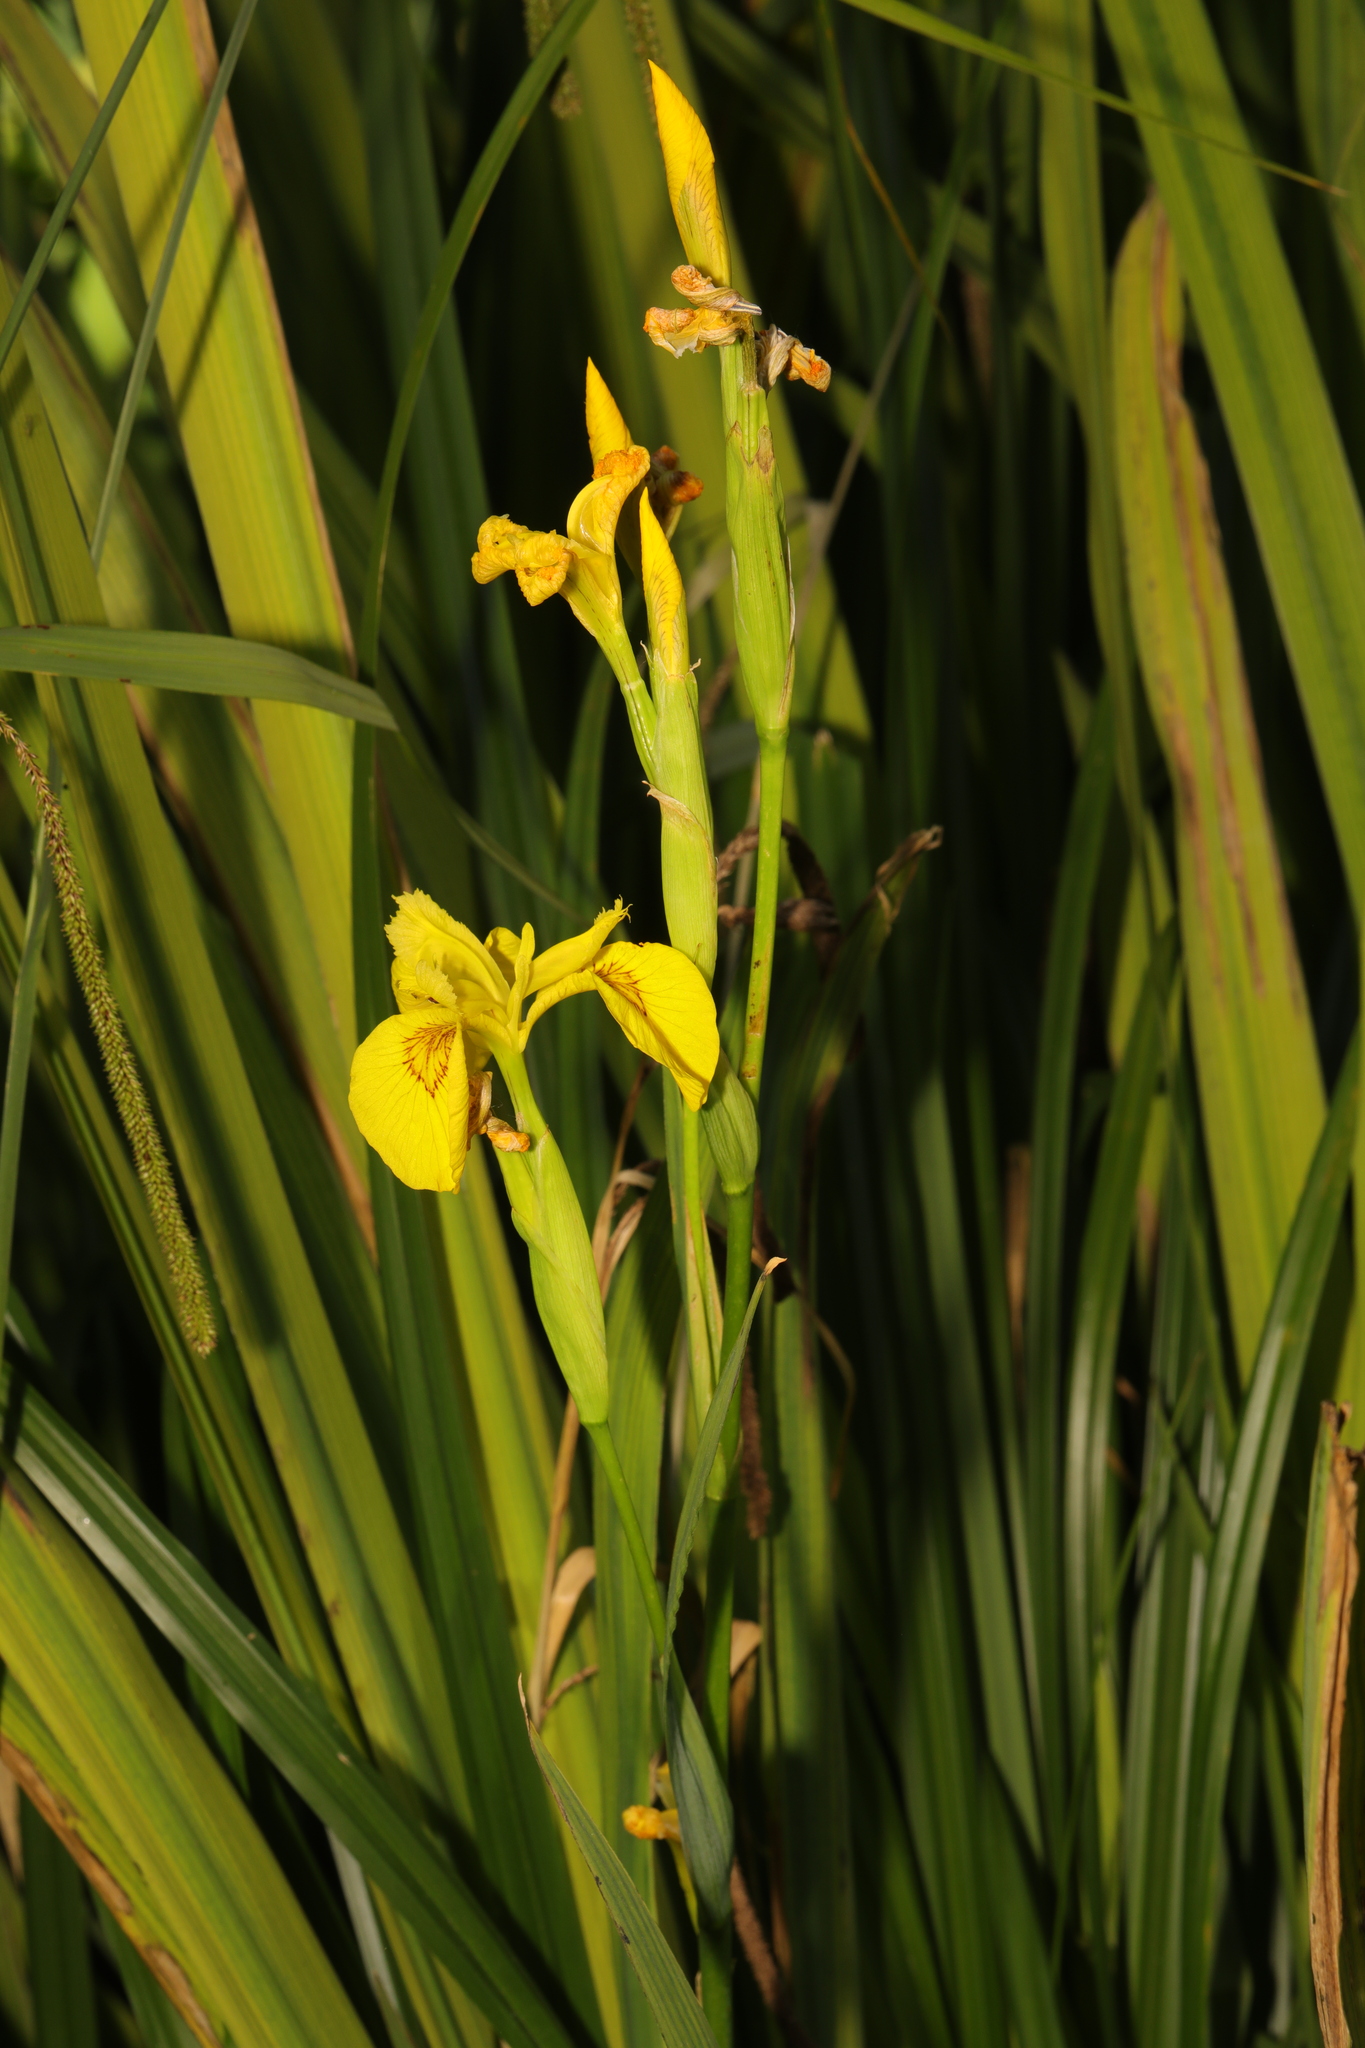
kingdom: Plantae
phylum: Tracheophyta
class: Liliopsida
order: Asparagales
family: Iridaceae
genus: Iris
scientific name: Iris pseudacorus
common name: Yellow flag
